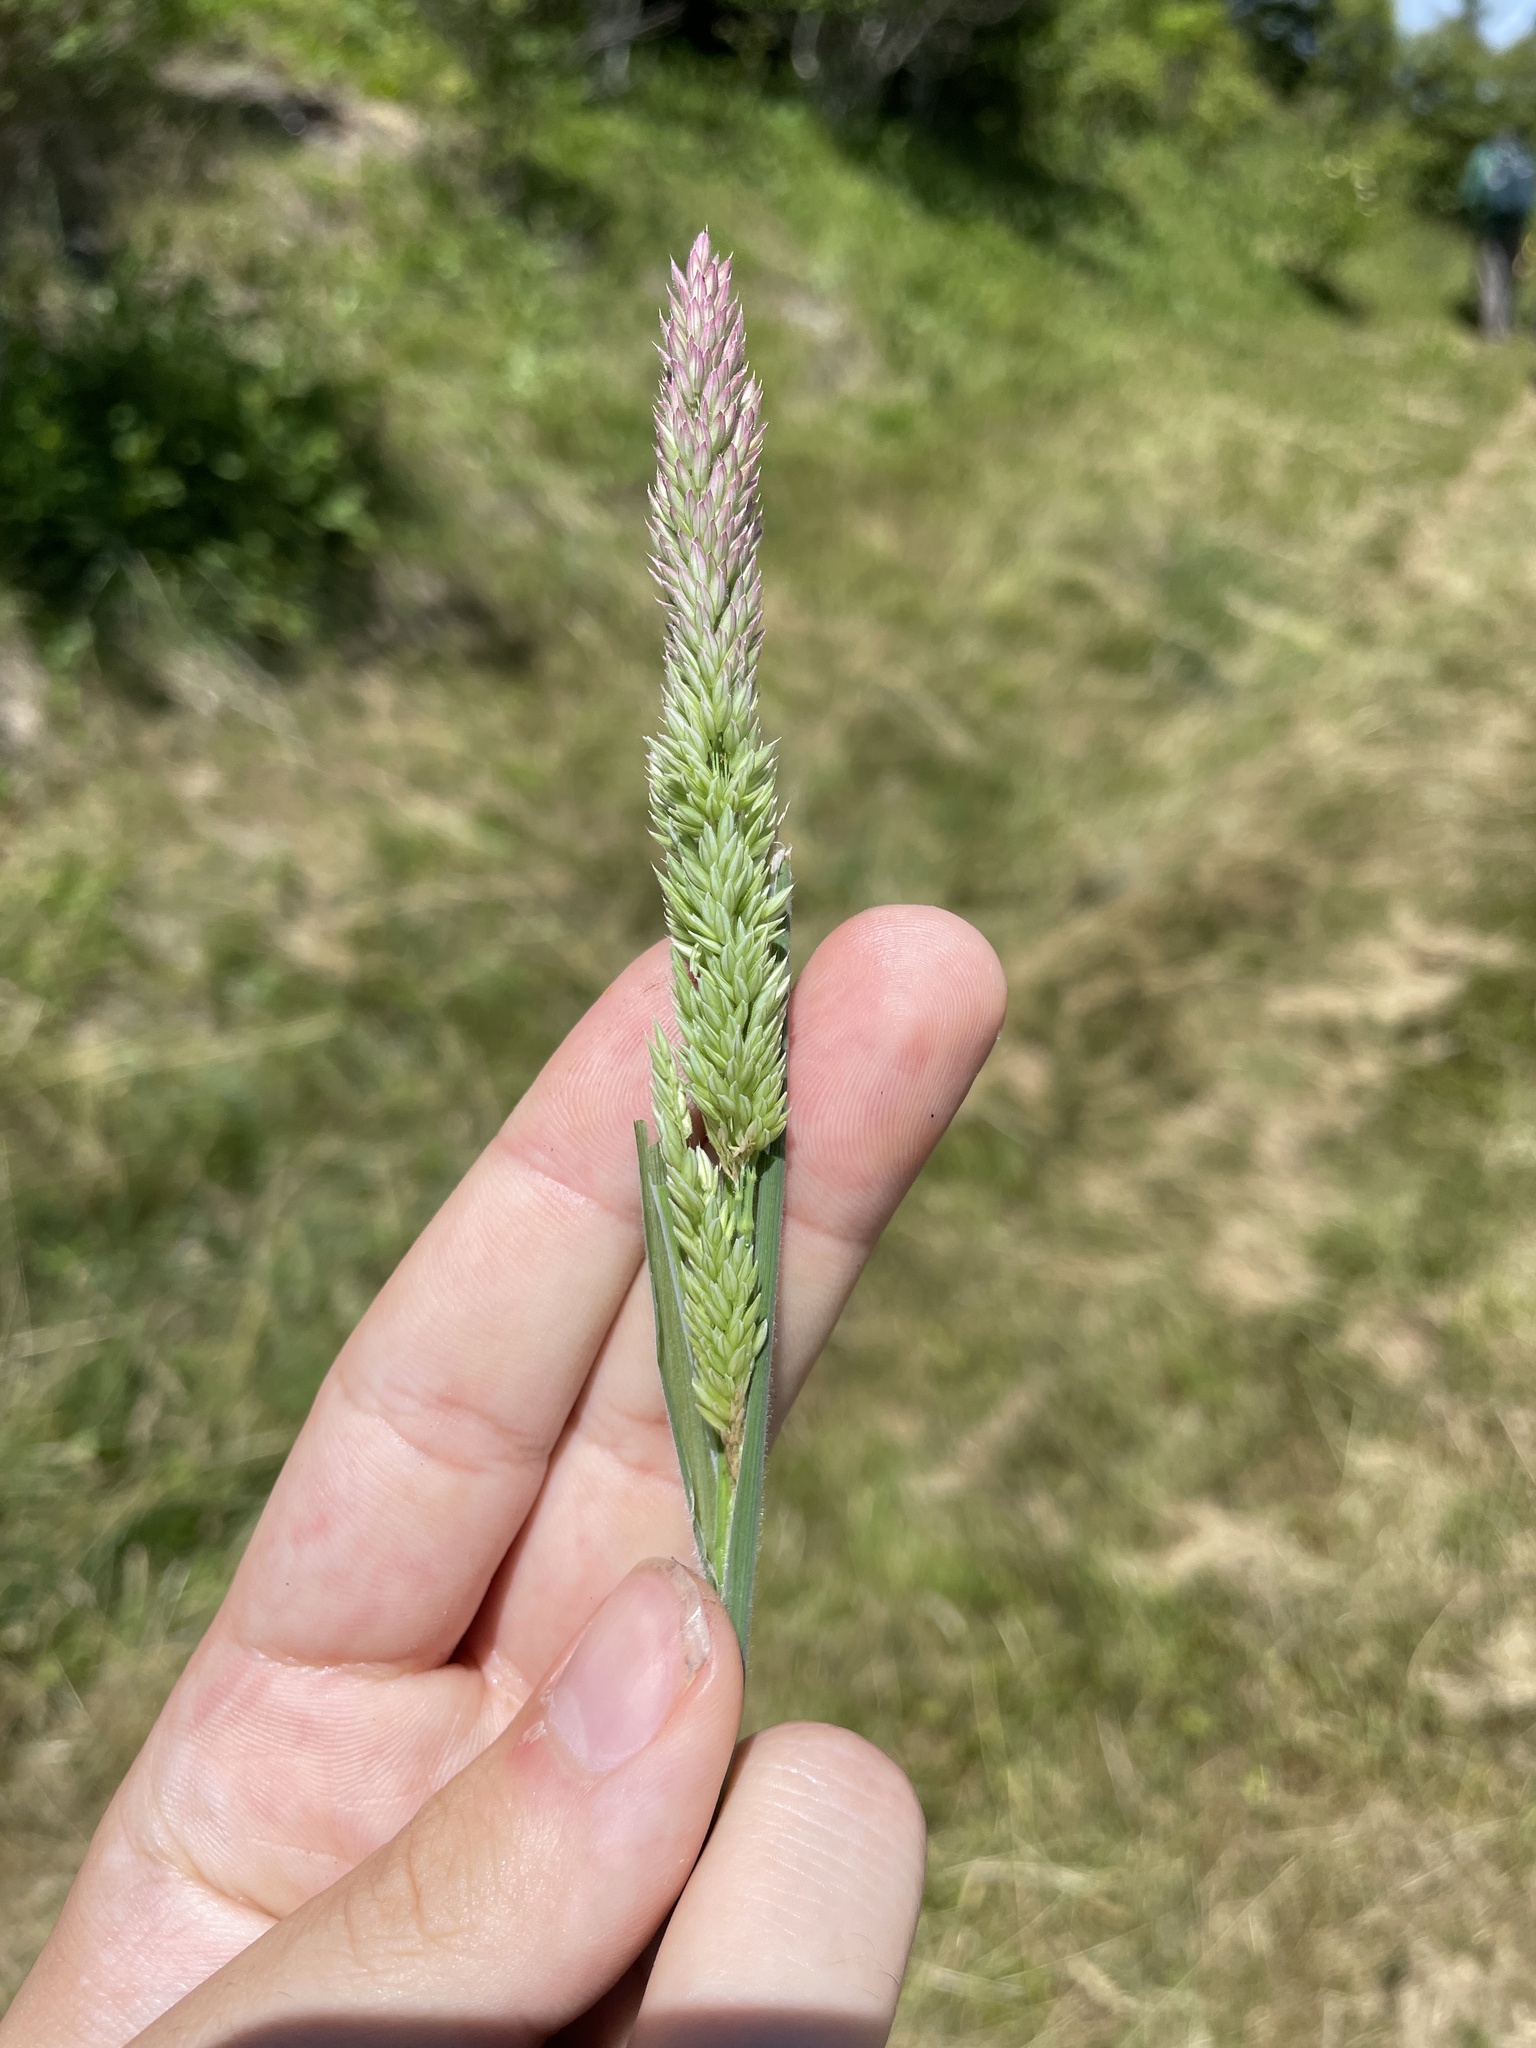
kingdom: Plantae
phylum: Tracheophyta
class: Liliopsida
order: Poales
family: Poaceae
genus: Holcus
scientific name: Holcus lanatus
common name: Yorkshire-fog
